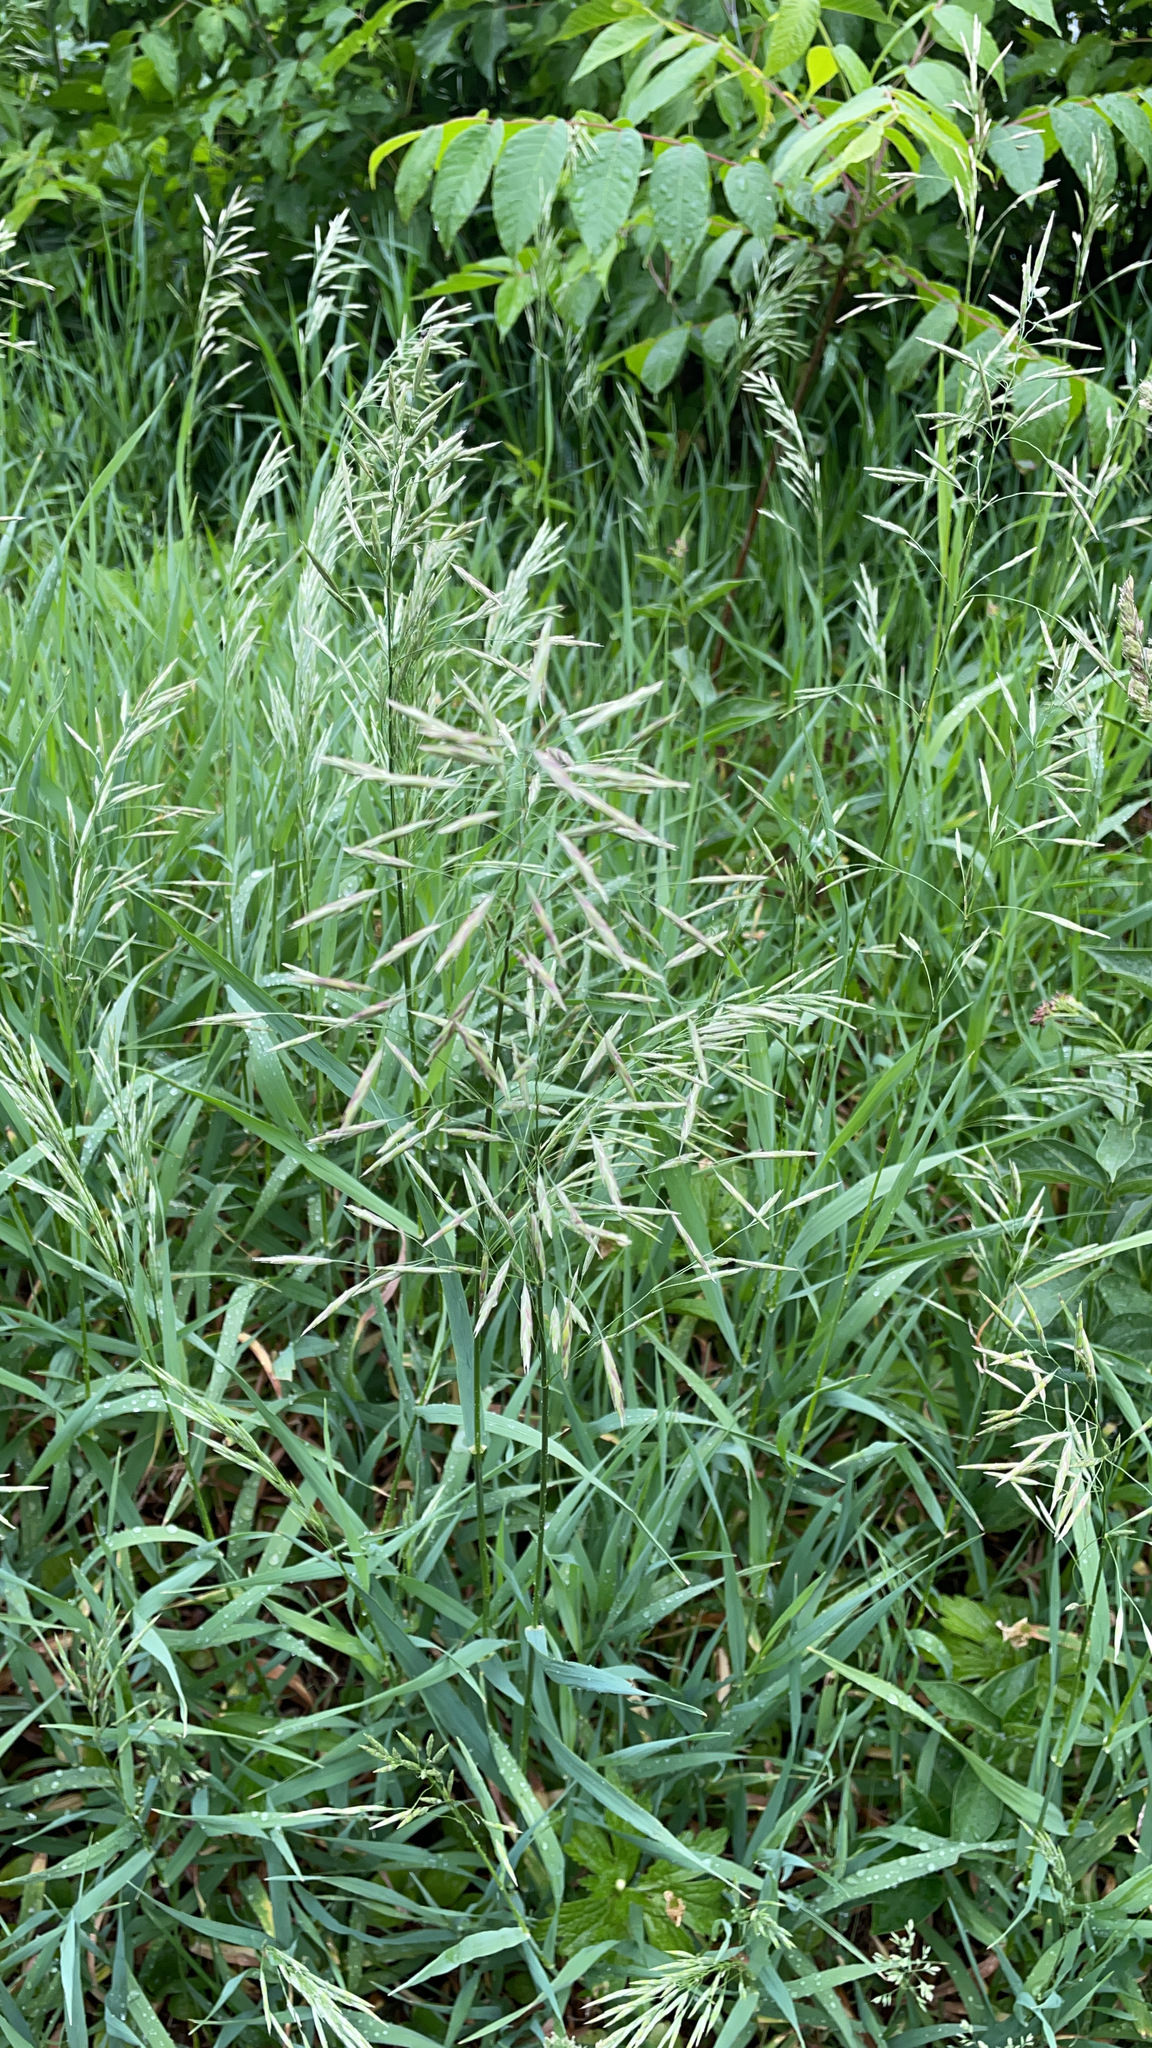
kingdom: Plantae
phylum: Tracheophyta
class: Liliopsida
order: Poales
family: Poaceae
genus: Bromus
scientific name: Bromus inermis
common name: Smooth brome
